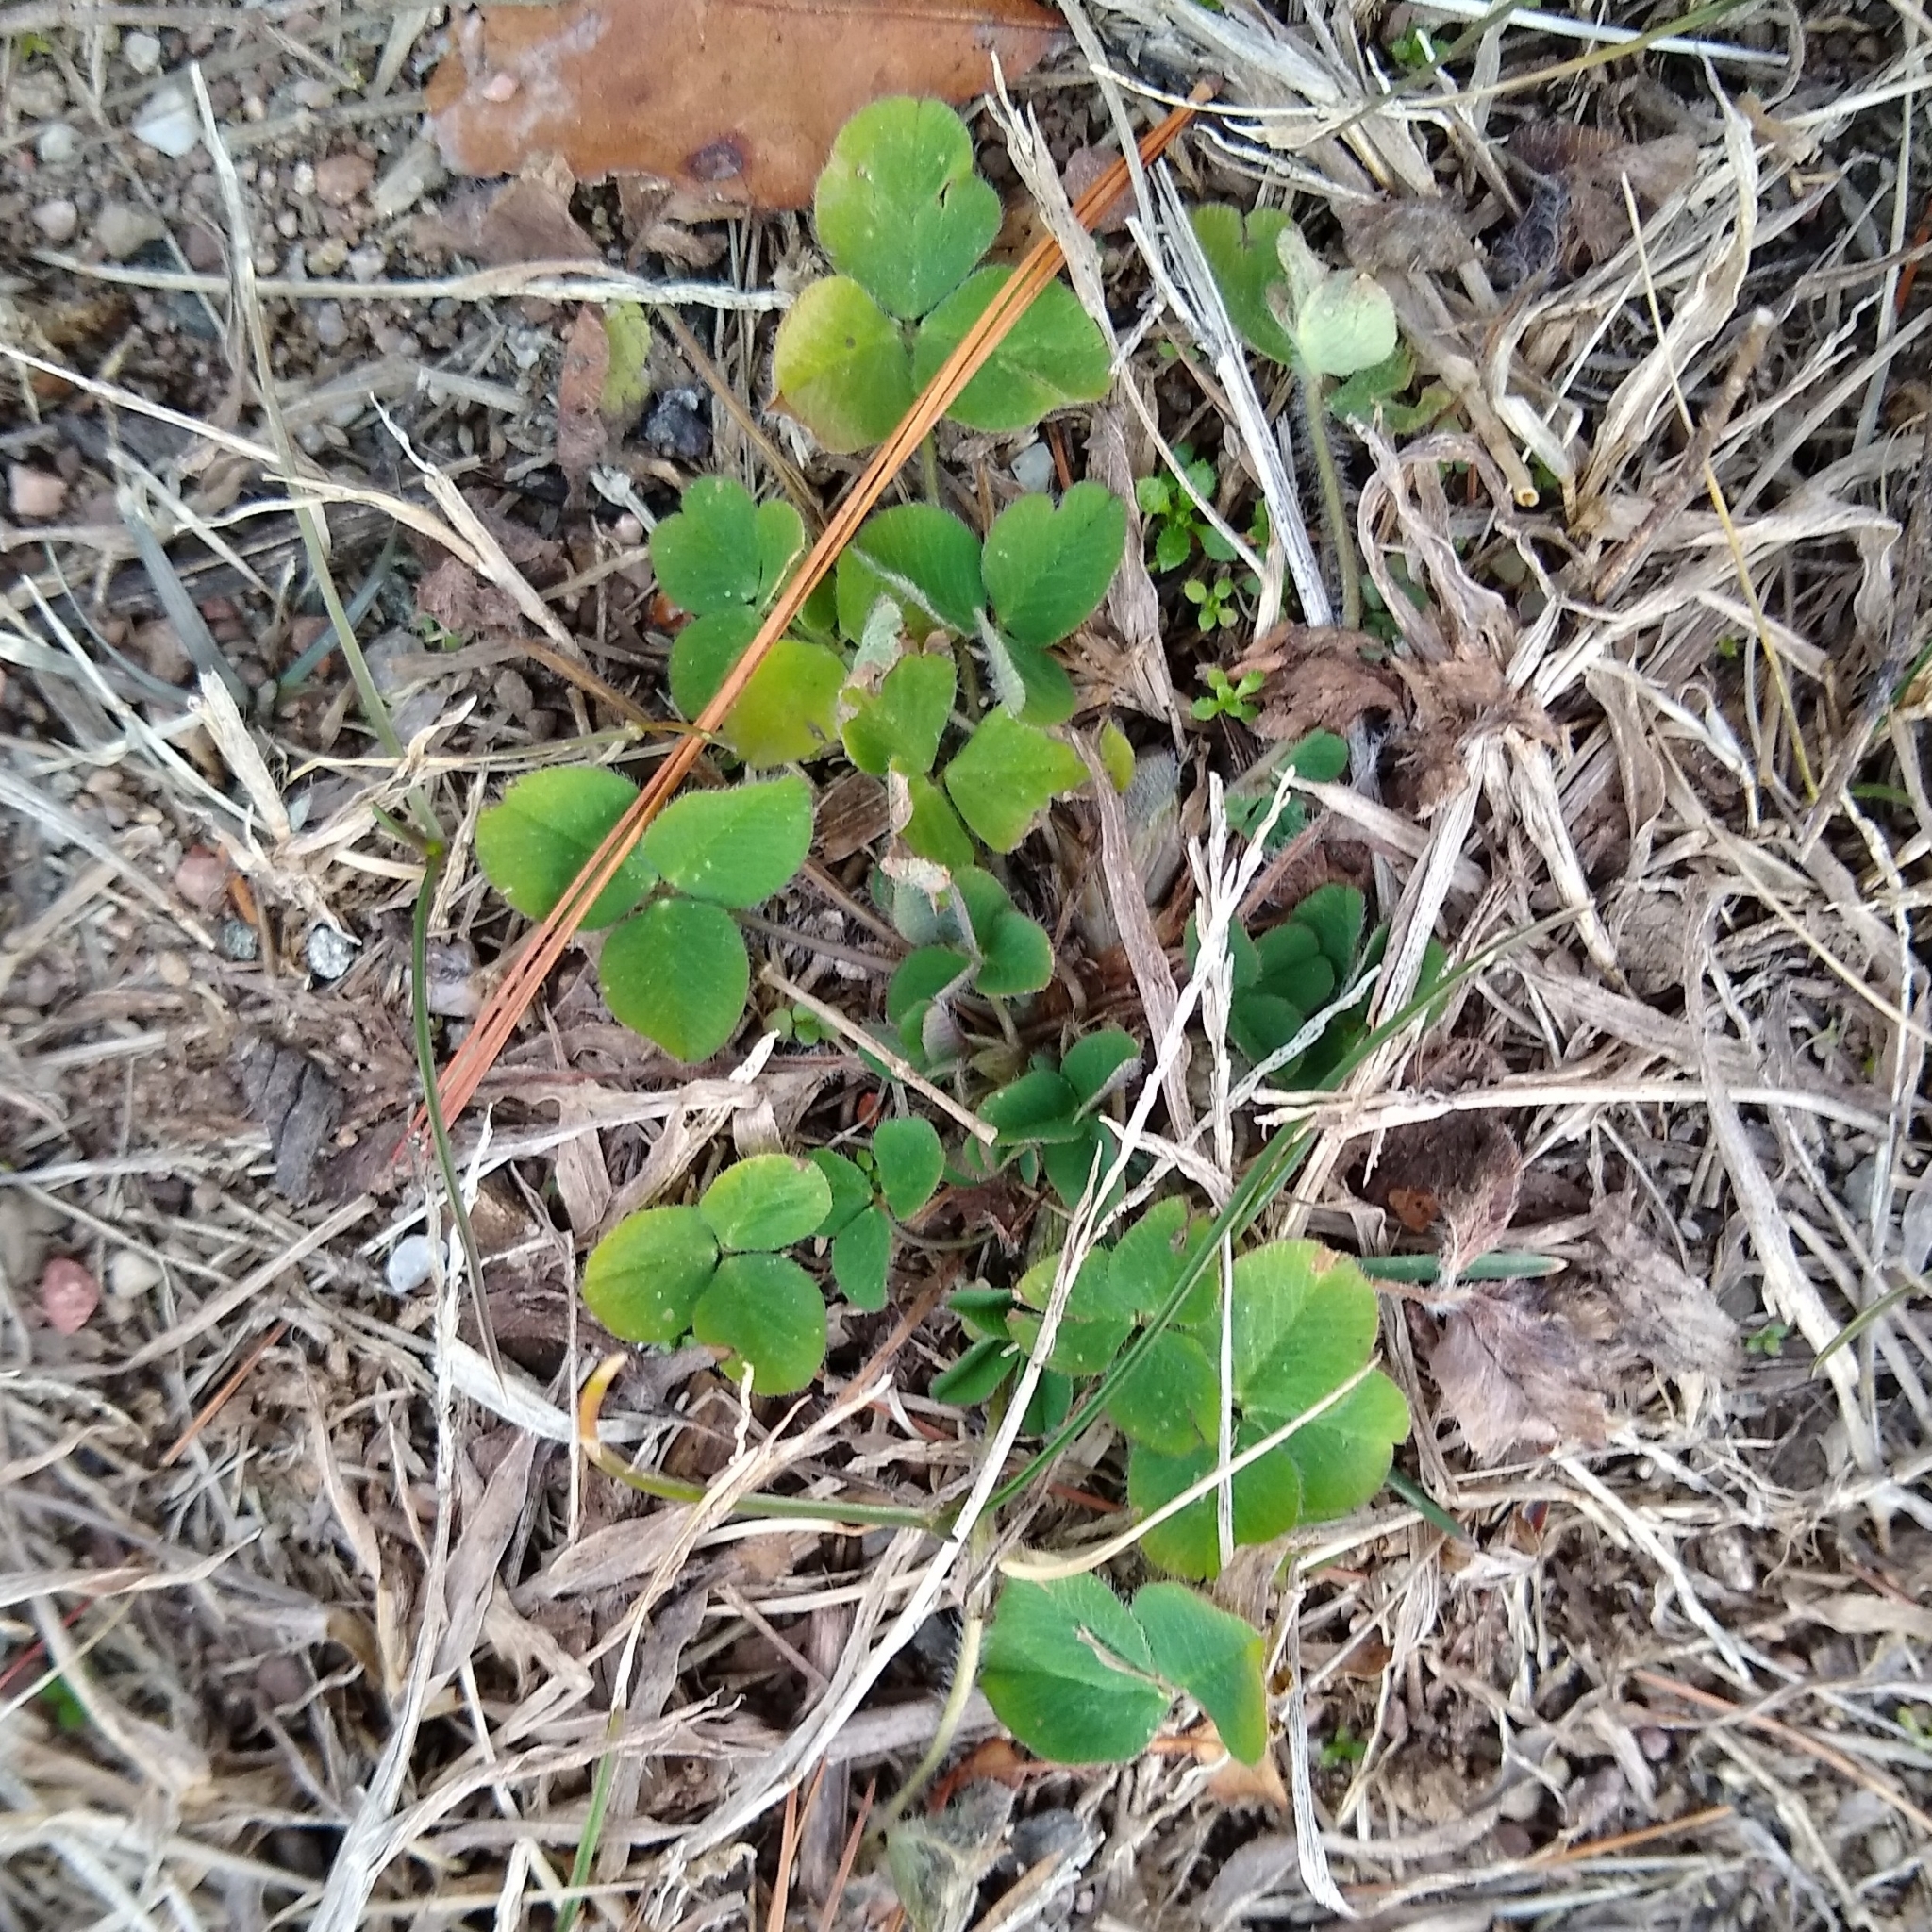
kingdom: Plantae
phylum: Tracheophyta
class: Magnoliopsida
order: Fabales
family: Fabaceae
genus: Trifolium
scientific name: Trifolium pratense
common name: Red clover
